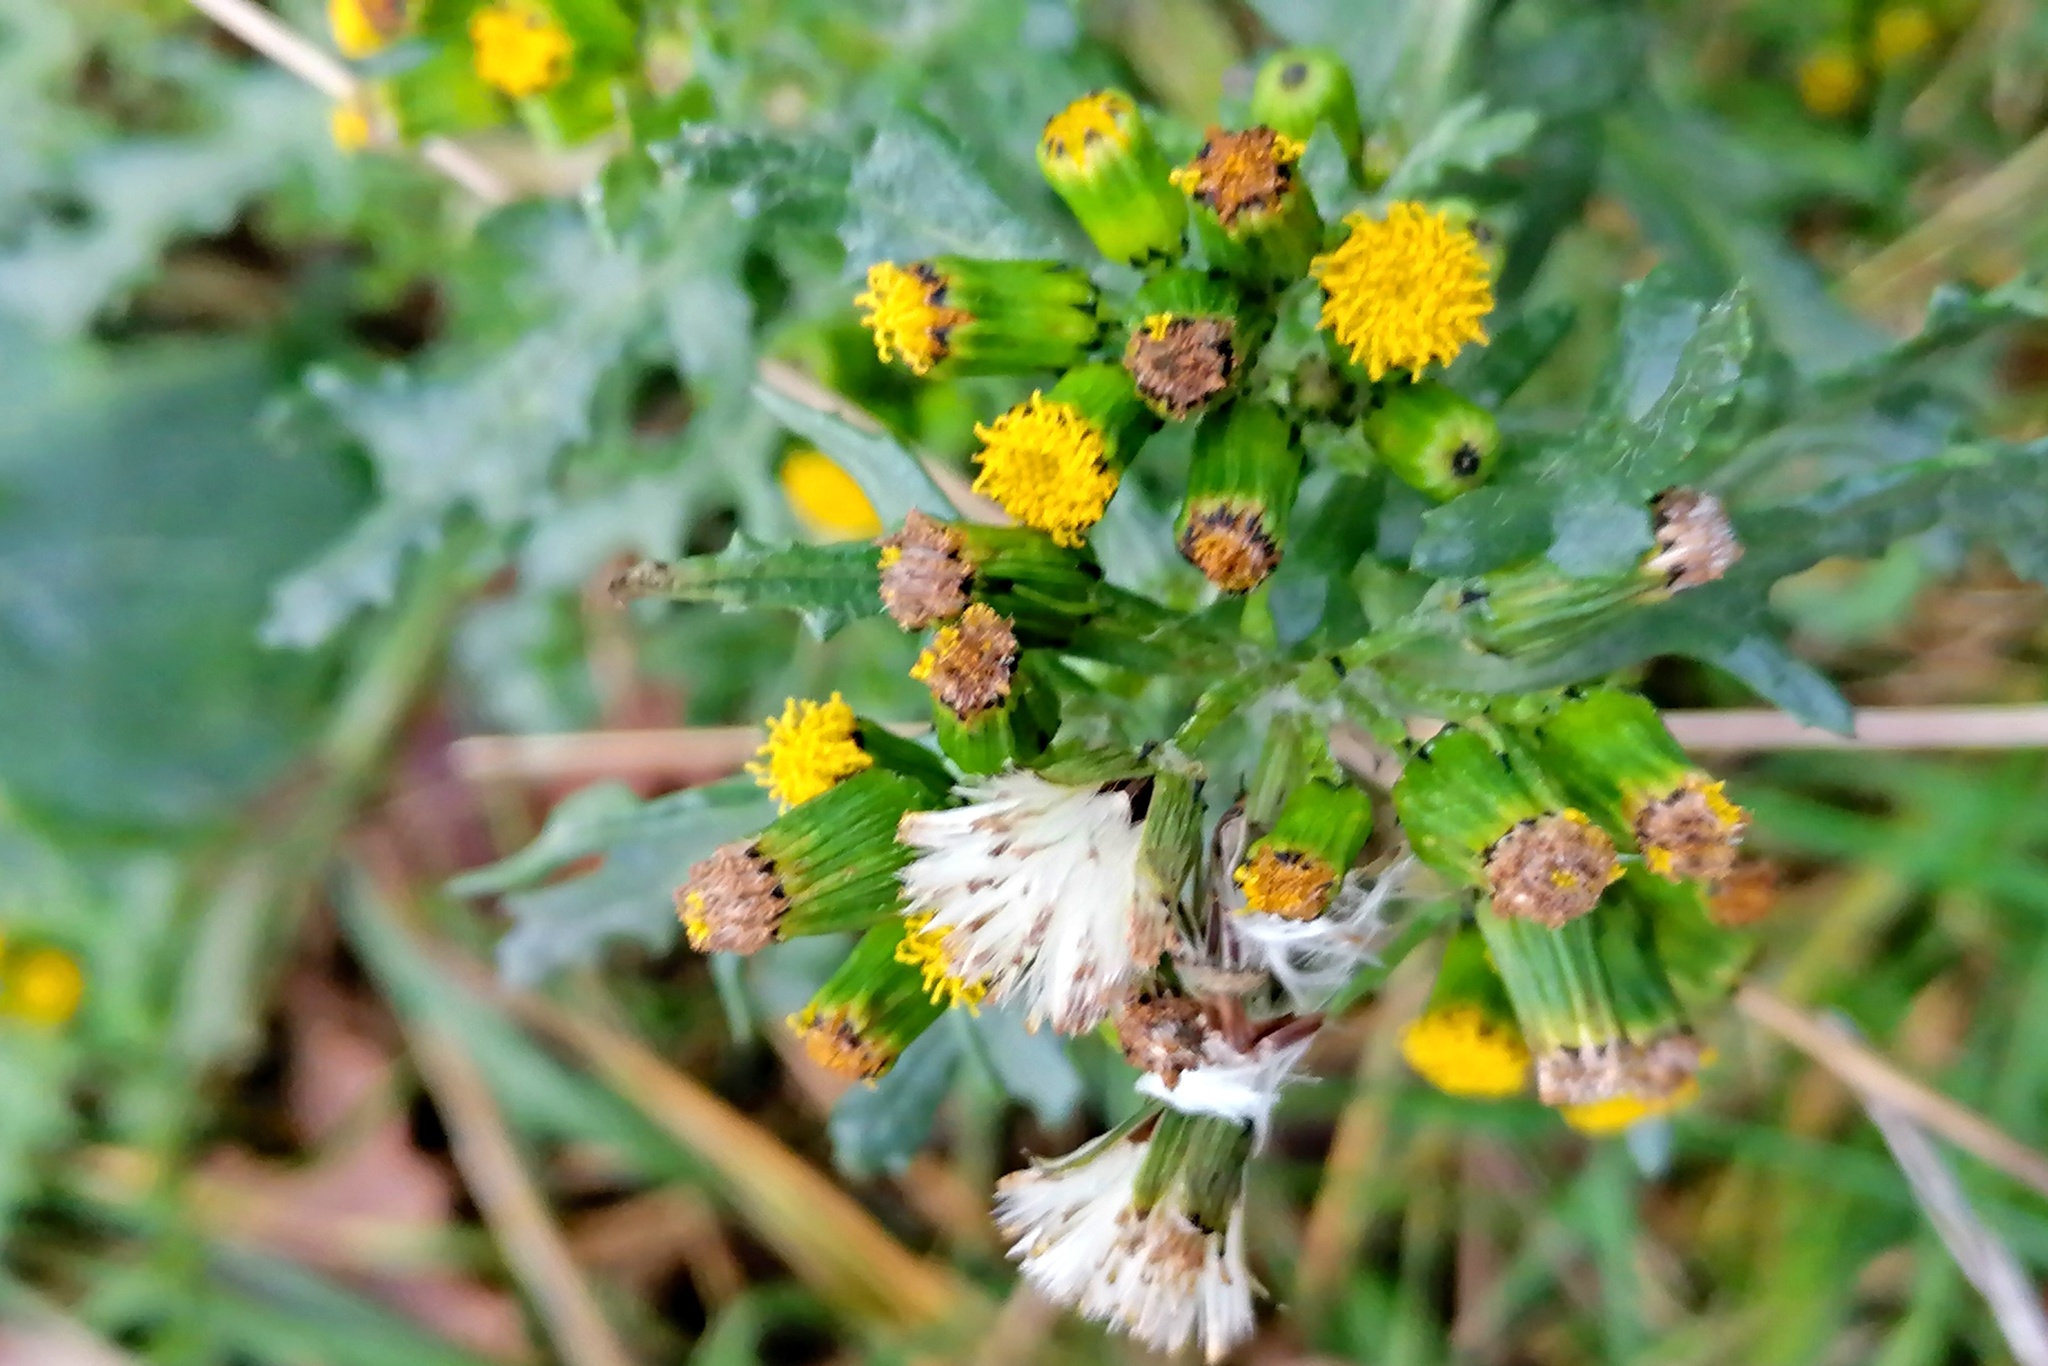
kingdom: Plantae
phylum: Tracheophyta
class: Magnoliopsida
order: Asterales
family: Asteraceae
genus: Senecio
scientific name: Senecio vulgaris
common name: Old-man-in-the-spring
